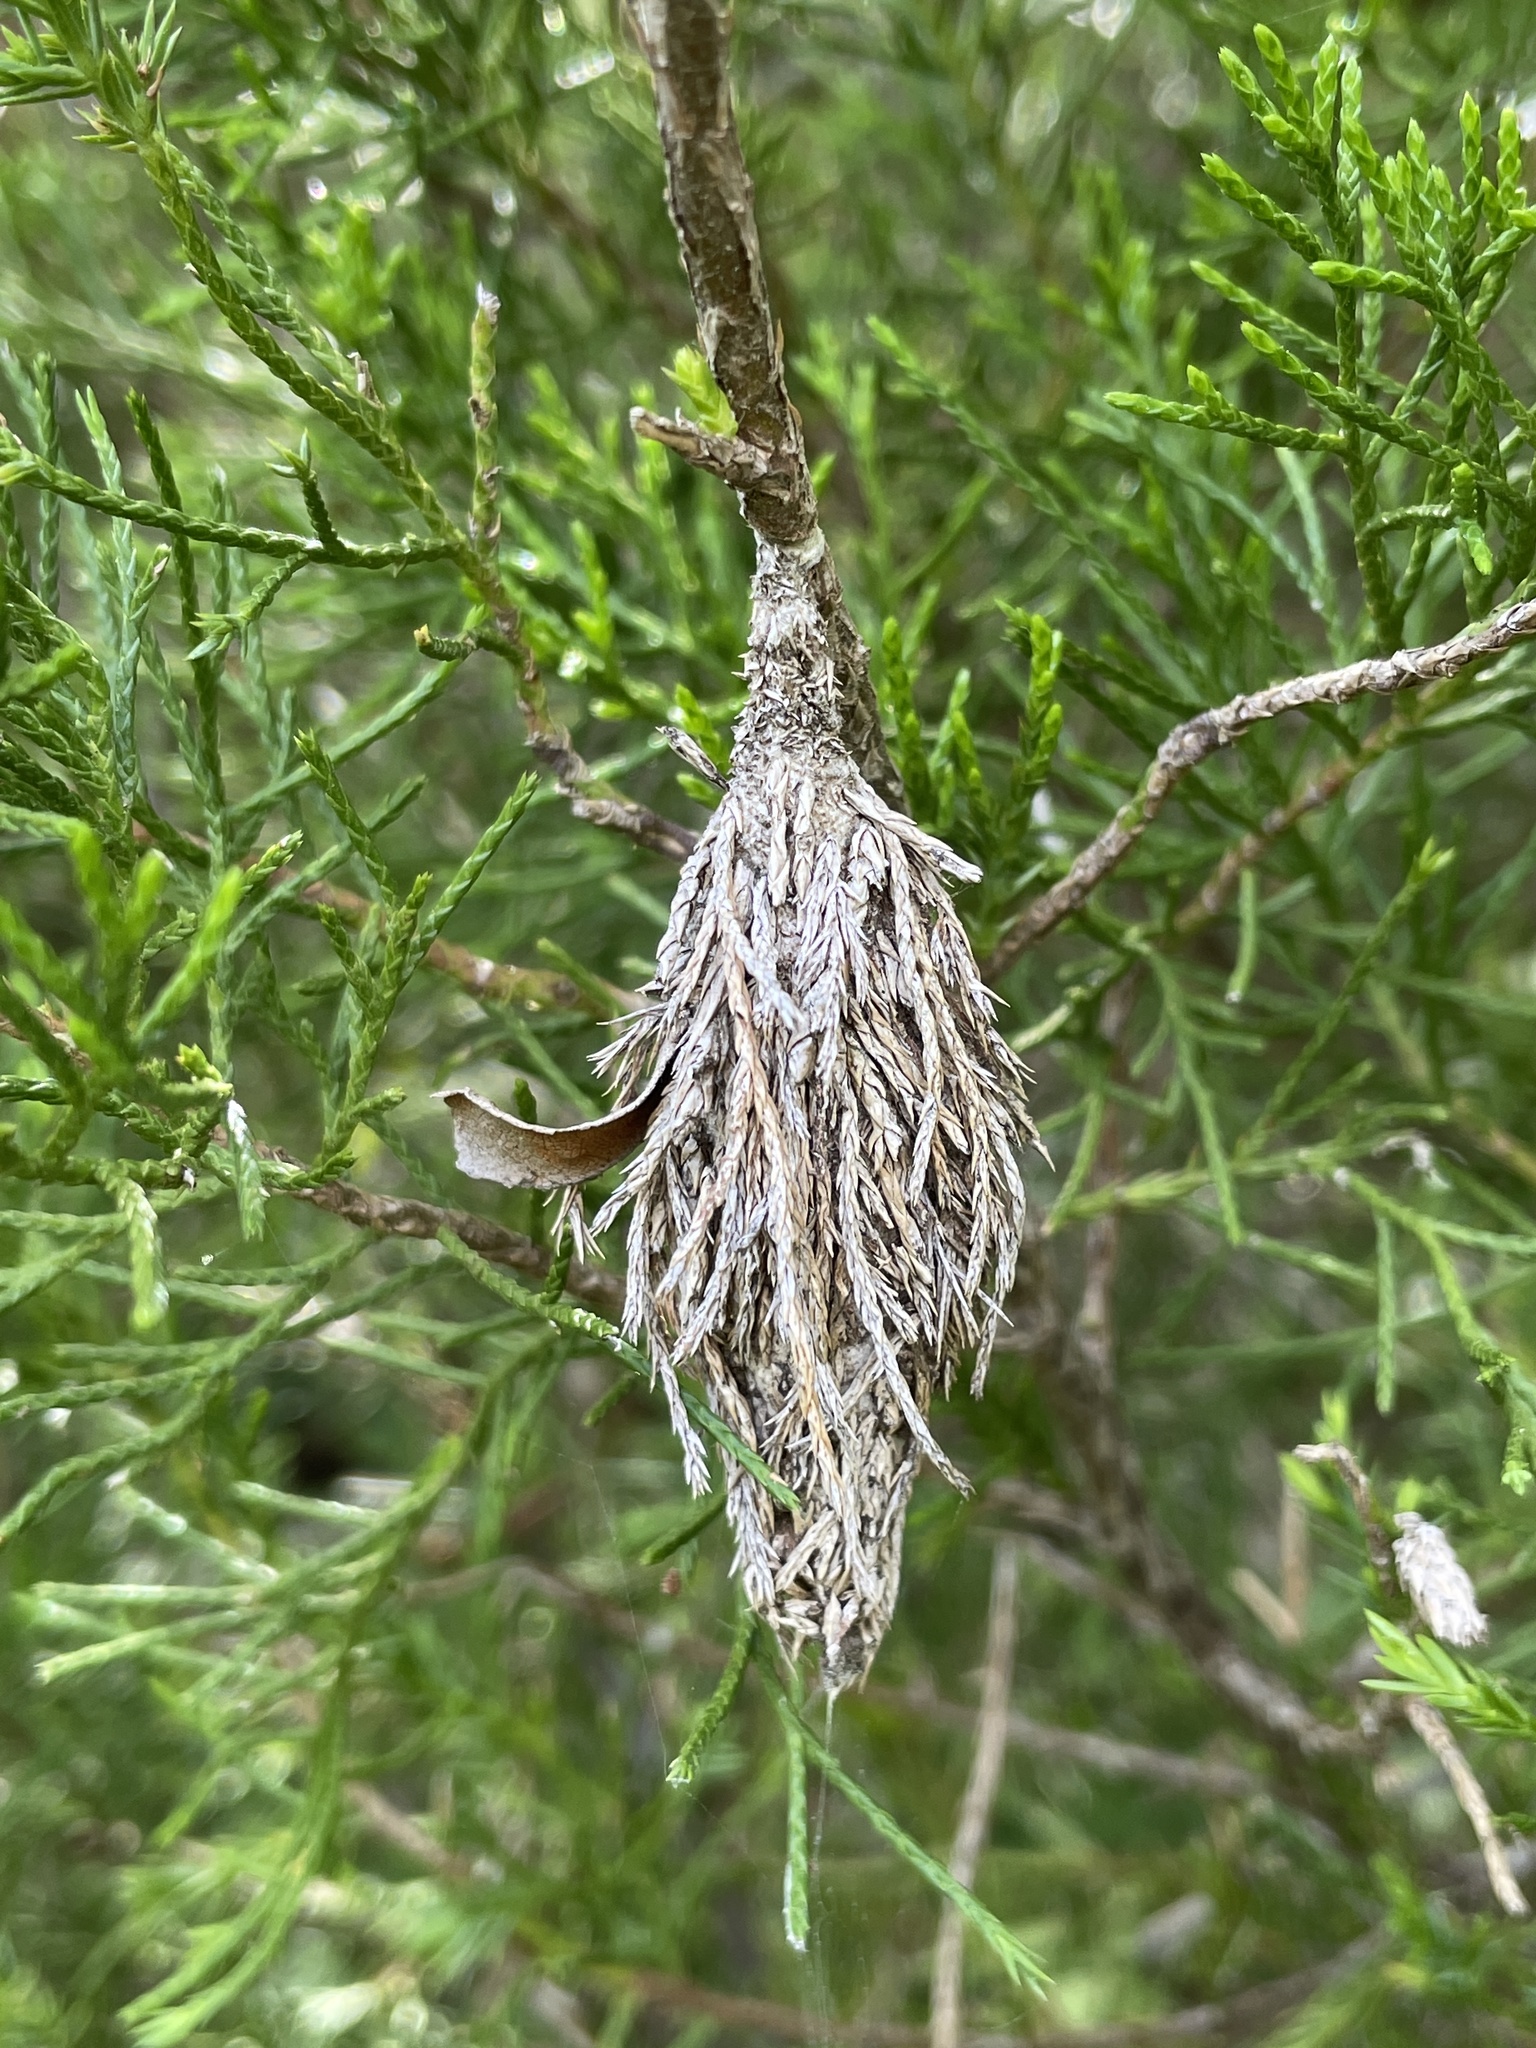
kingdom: Animalia
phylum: Arthropoda
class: Insecta
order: Lepidoptera
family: Psychidae
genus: Thyridopteryx
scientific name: Thyridopteryx ephemeraeformis
